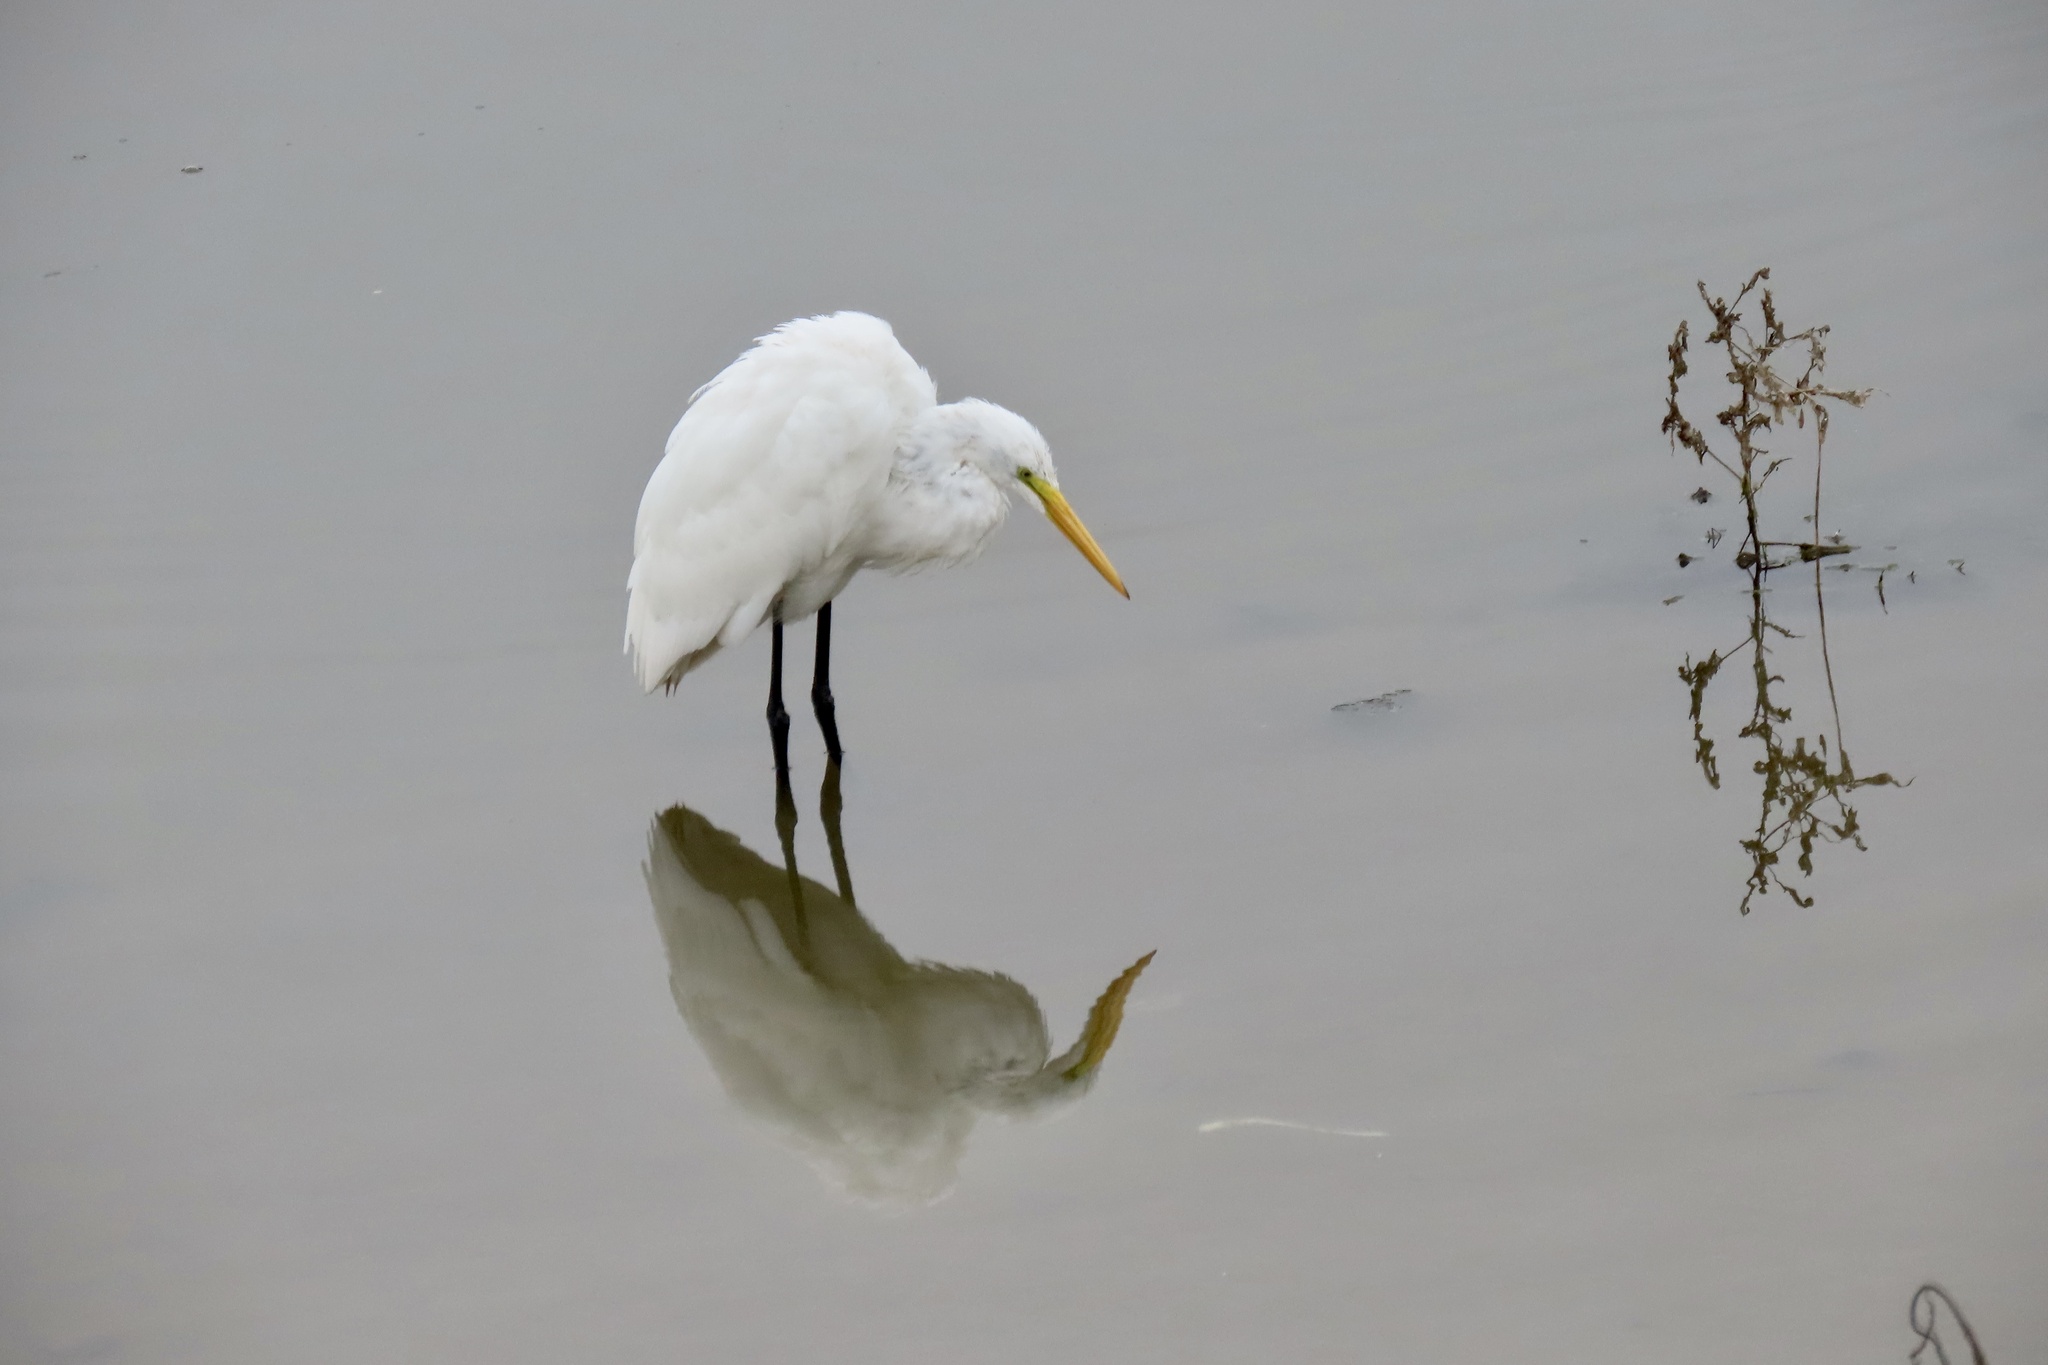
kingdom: Animalia
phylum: Chordata
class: Aves
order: Pelecaniformes
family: Ardeidae
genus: Ardea
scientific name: Ardea alba
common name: Great egret
